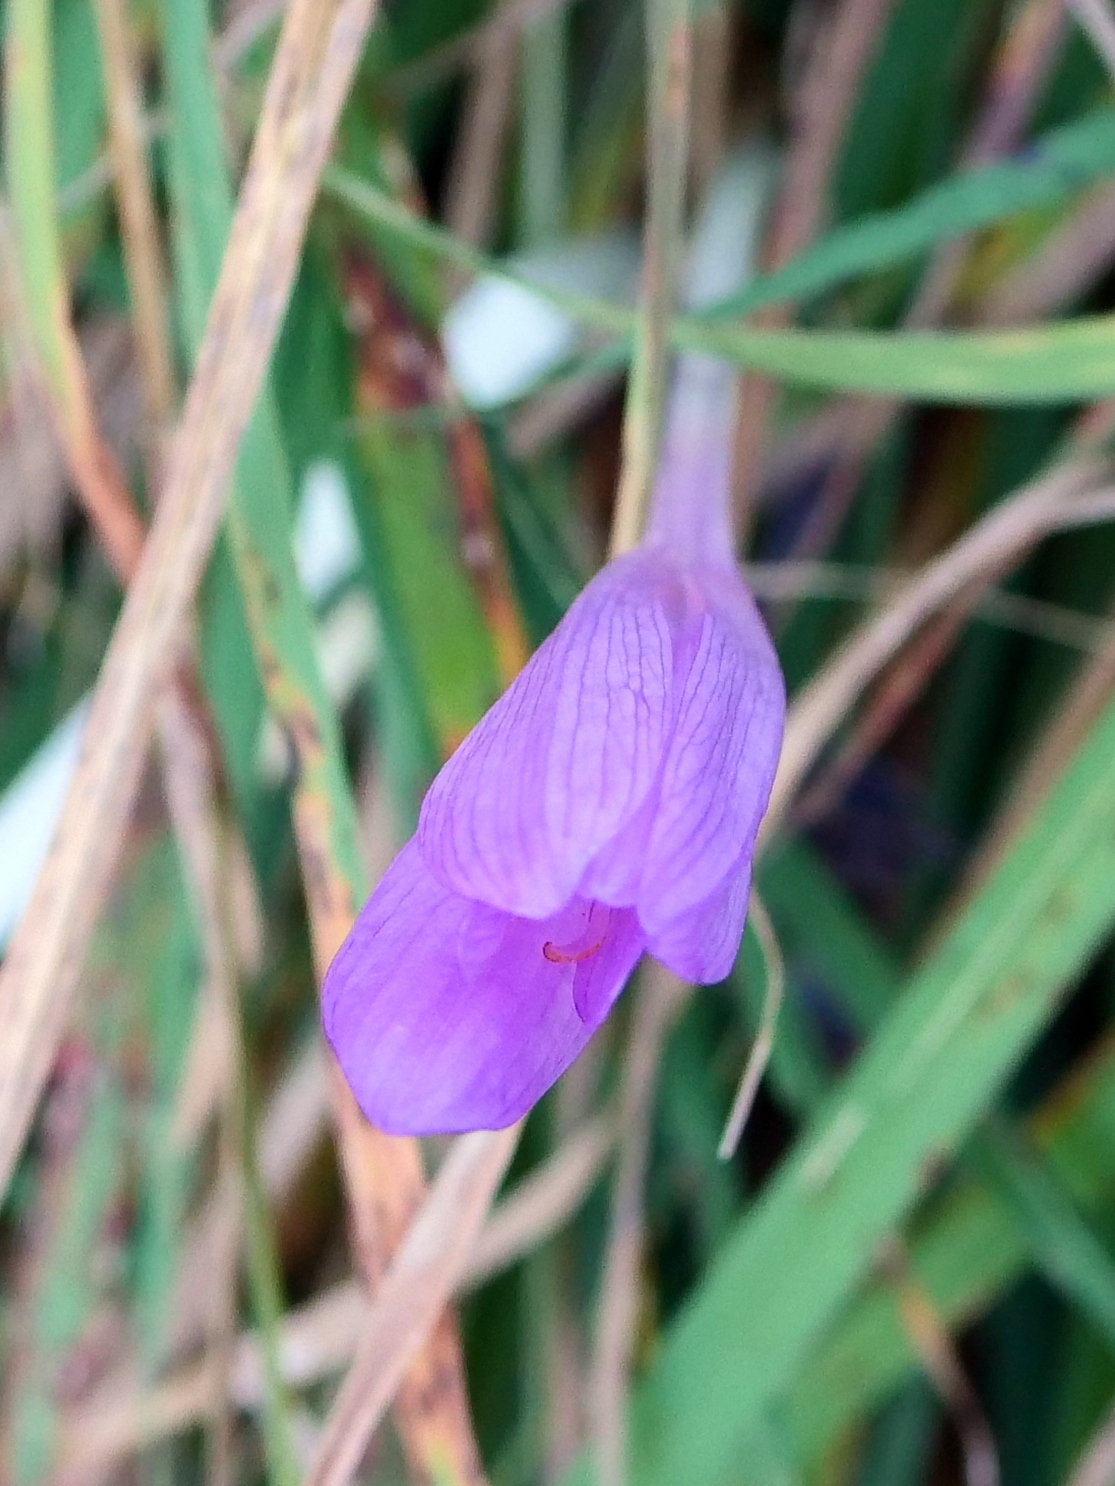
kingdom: Plantae
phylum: Tracheophyta
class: Liliopsida
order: Liliales
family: Colchicaceae
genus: Colchicum
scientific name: Colchicum autumnale
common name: Autumn crocus
